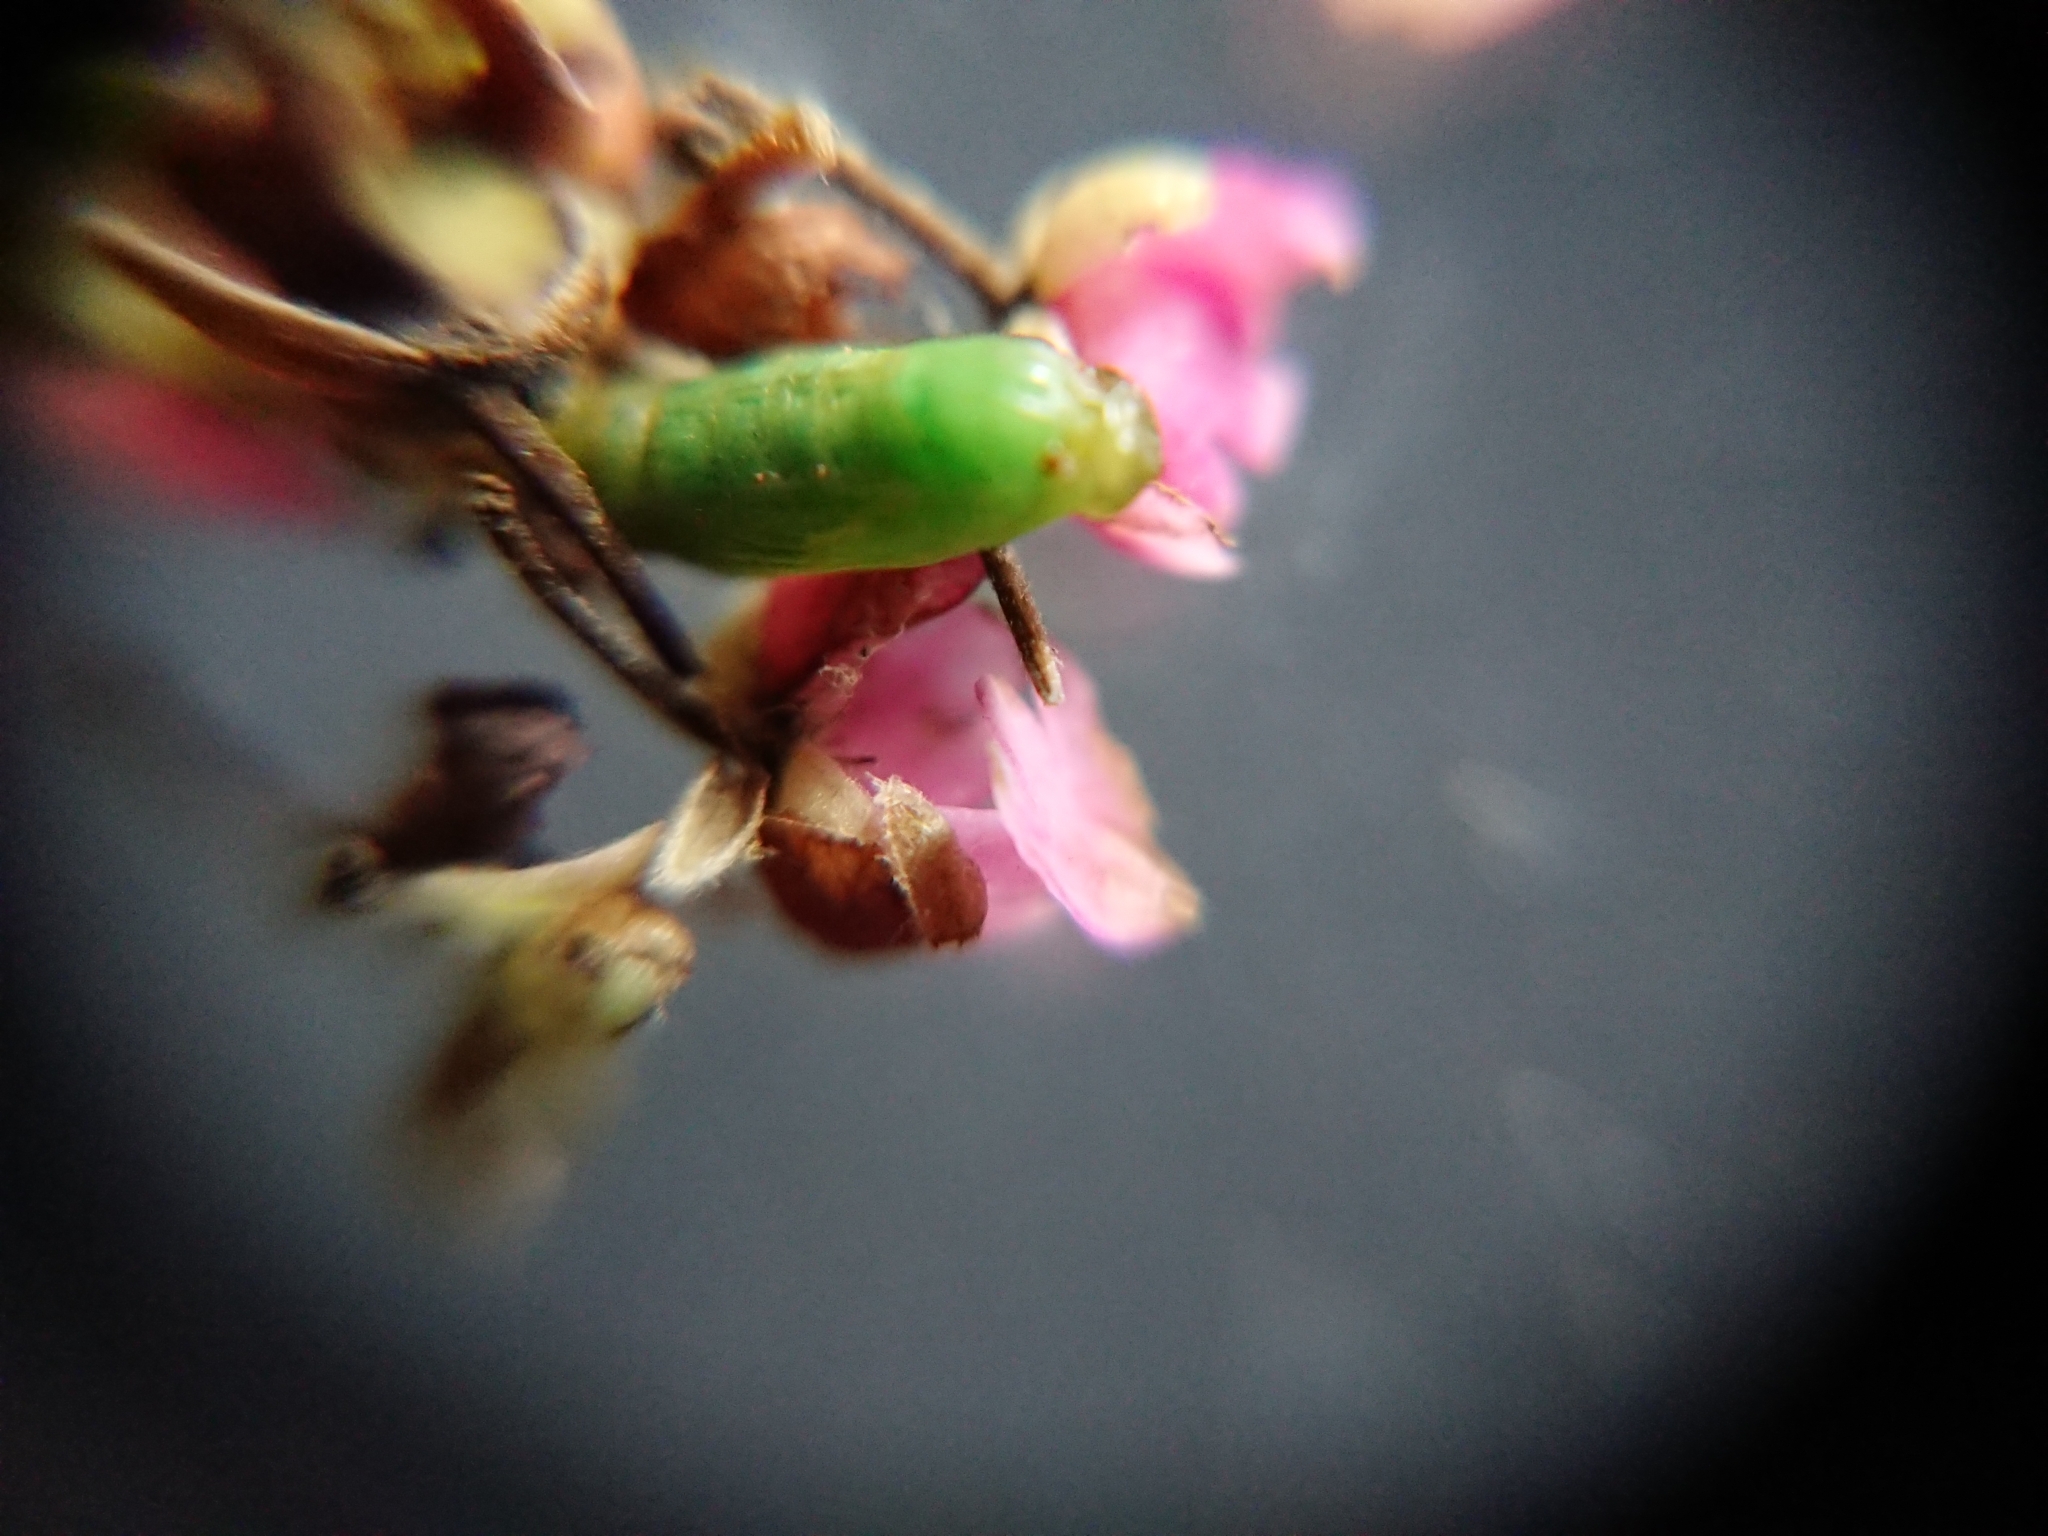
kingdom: Animalia
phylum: Arthropoda
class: Insecta
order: Lepidoptera
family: Geometridae
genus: Phrissogonus
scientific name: Phrissogonus laticostata
